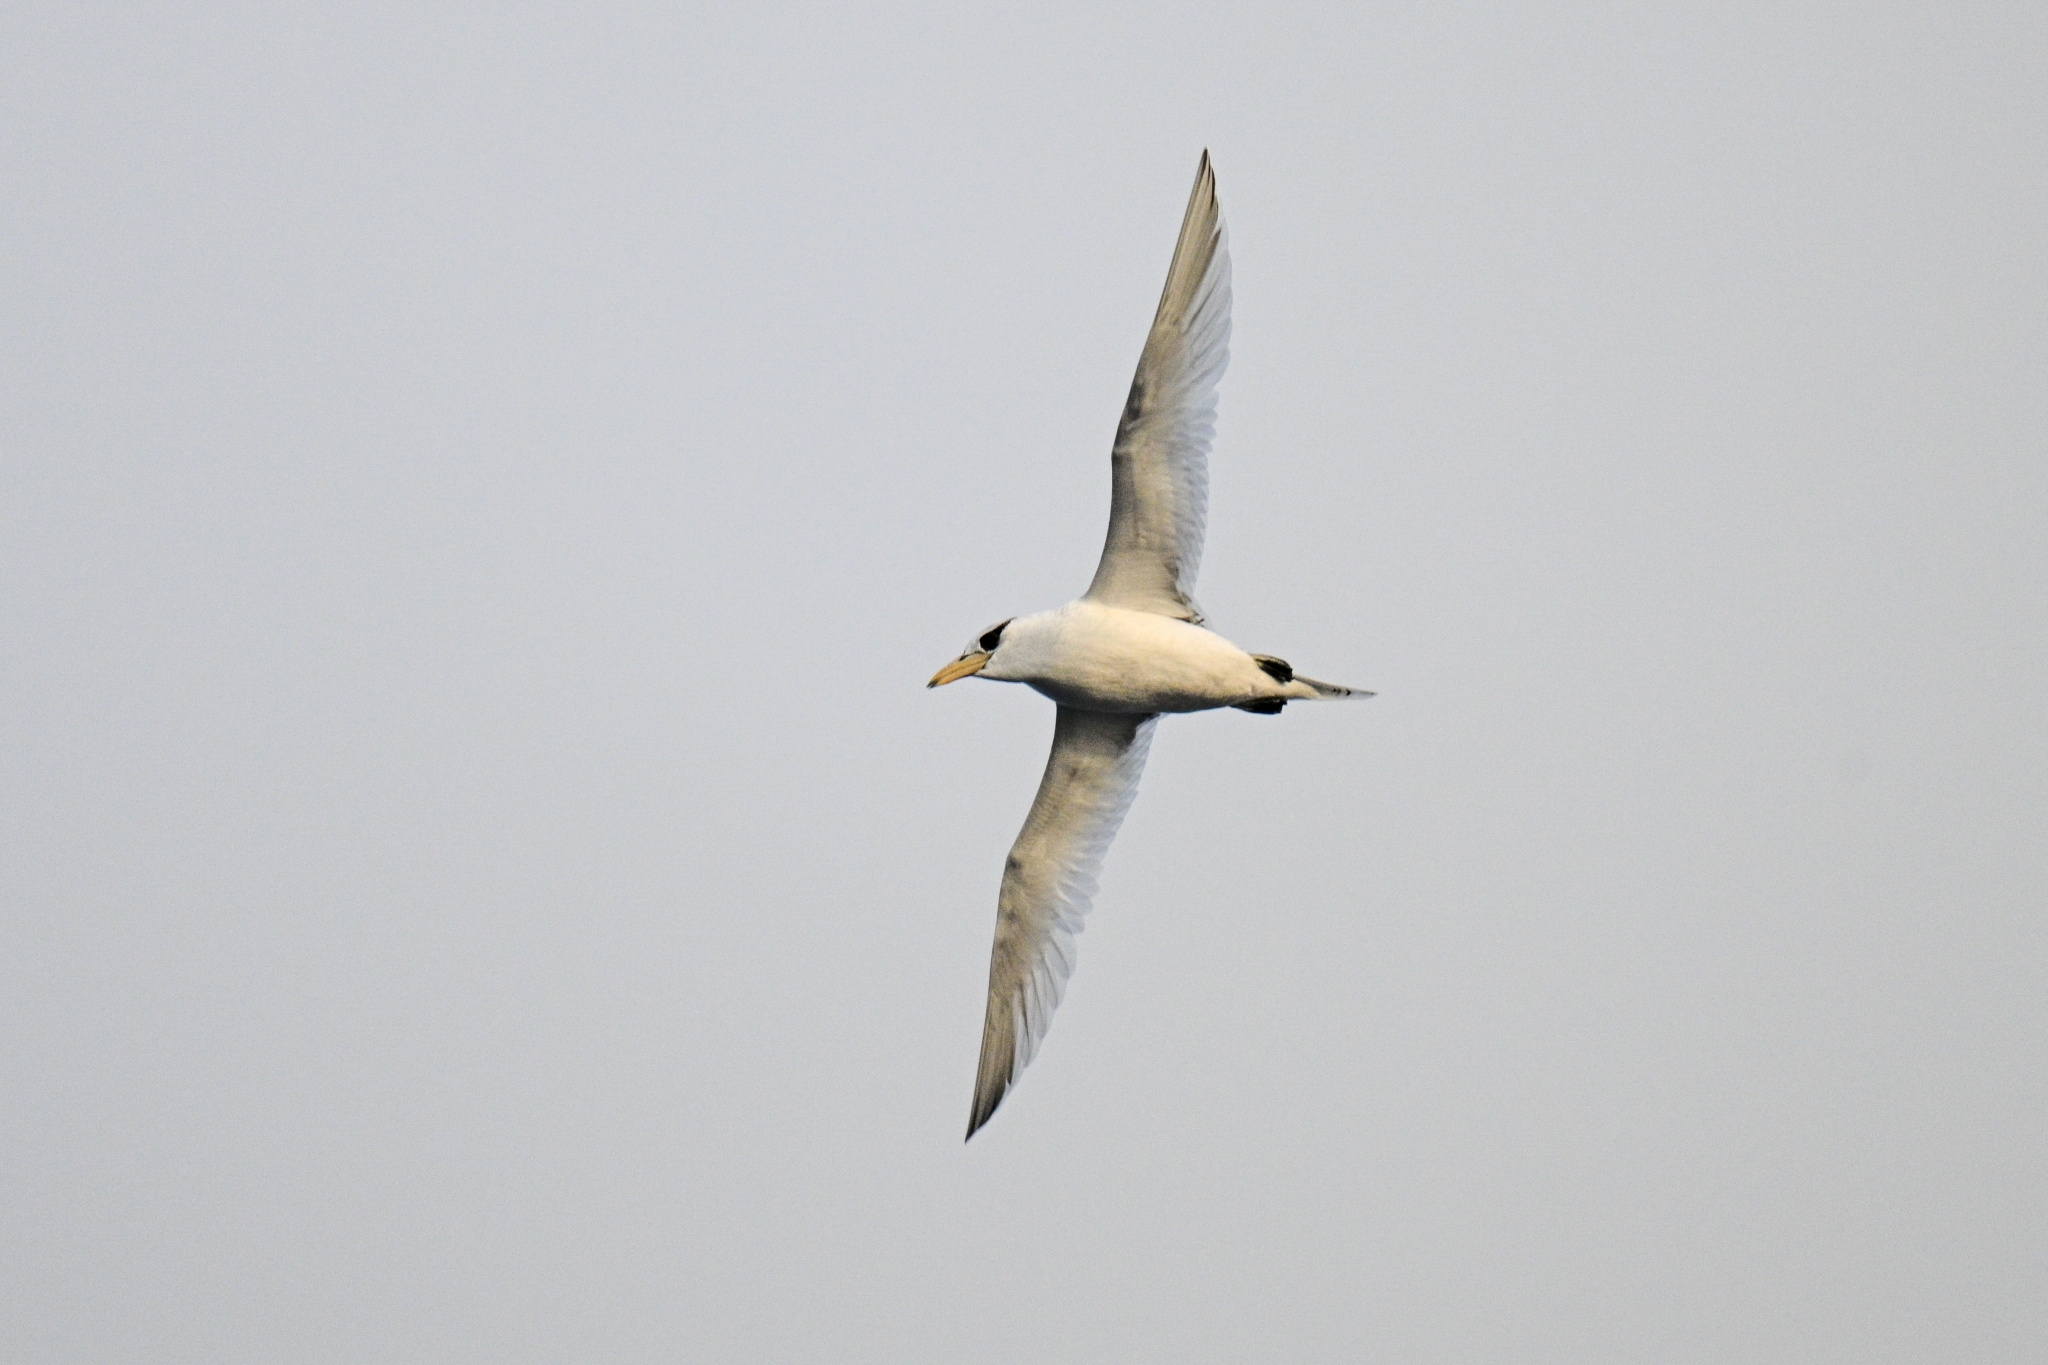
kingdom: Animalia
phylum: Chordata
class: Aves
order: Phaethontiformes
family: Phaethontidae
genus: Phaethon
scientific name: Phaethon aethereus
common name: Red-billed tropicbird
